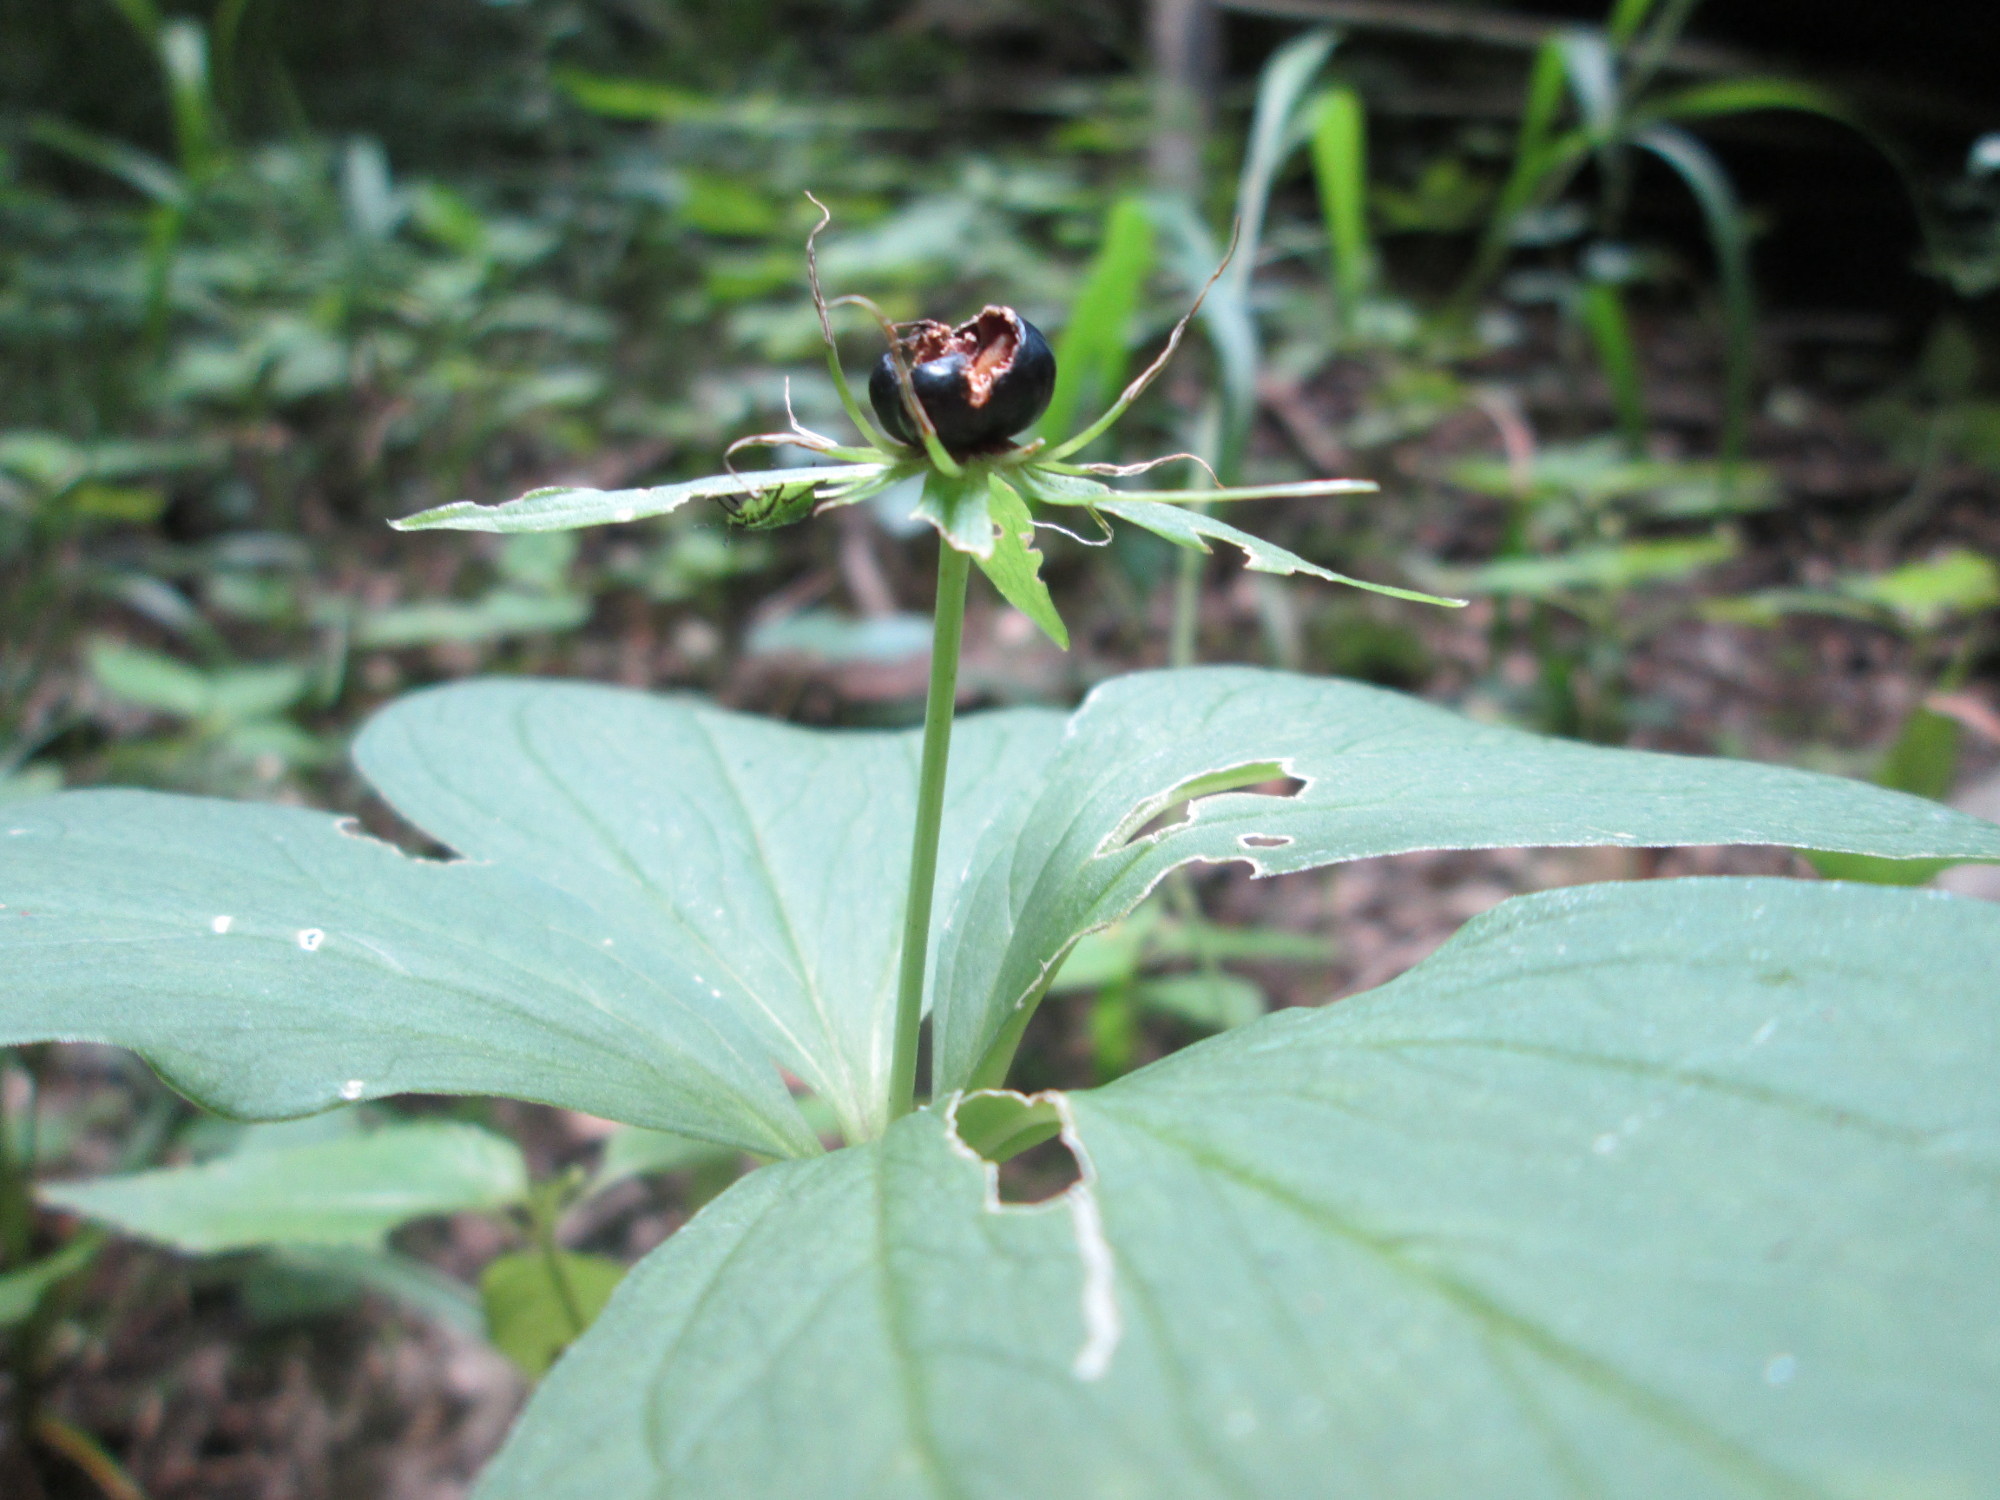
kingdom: Plantae
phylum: Tracheophyta
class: Liliopsida
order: Liliales
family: Melanthiaceae
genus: Paris
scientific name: Paris quadrifolia
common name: Herb-paris
